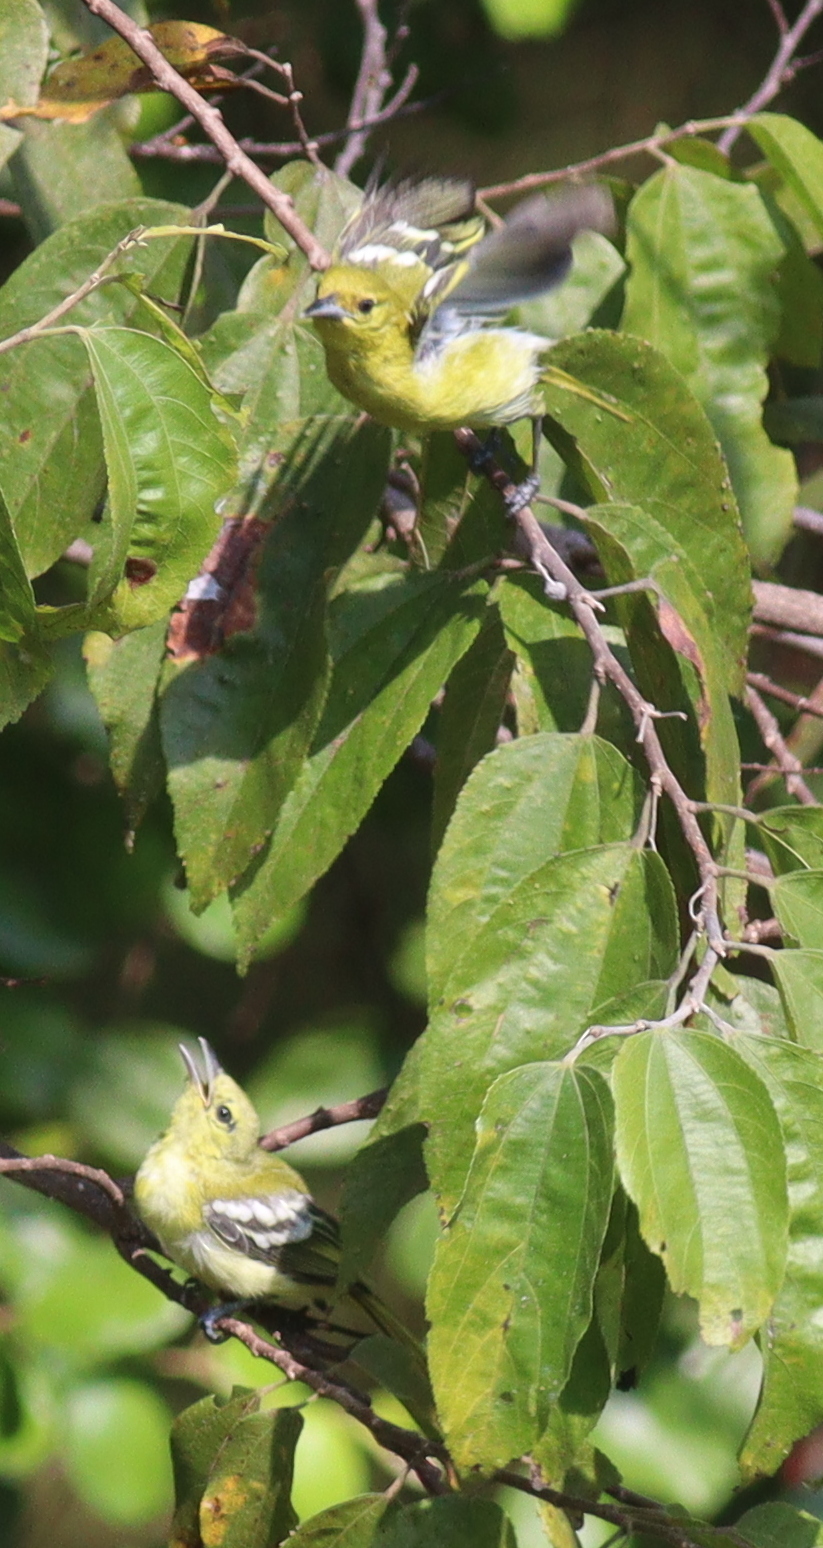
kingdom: Animalia
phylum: Chordata
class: Aves
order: Passeriformes
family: Aegithinidae
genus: Aegithina
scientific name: Aegithina tiphia
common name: Common iora
